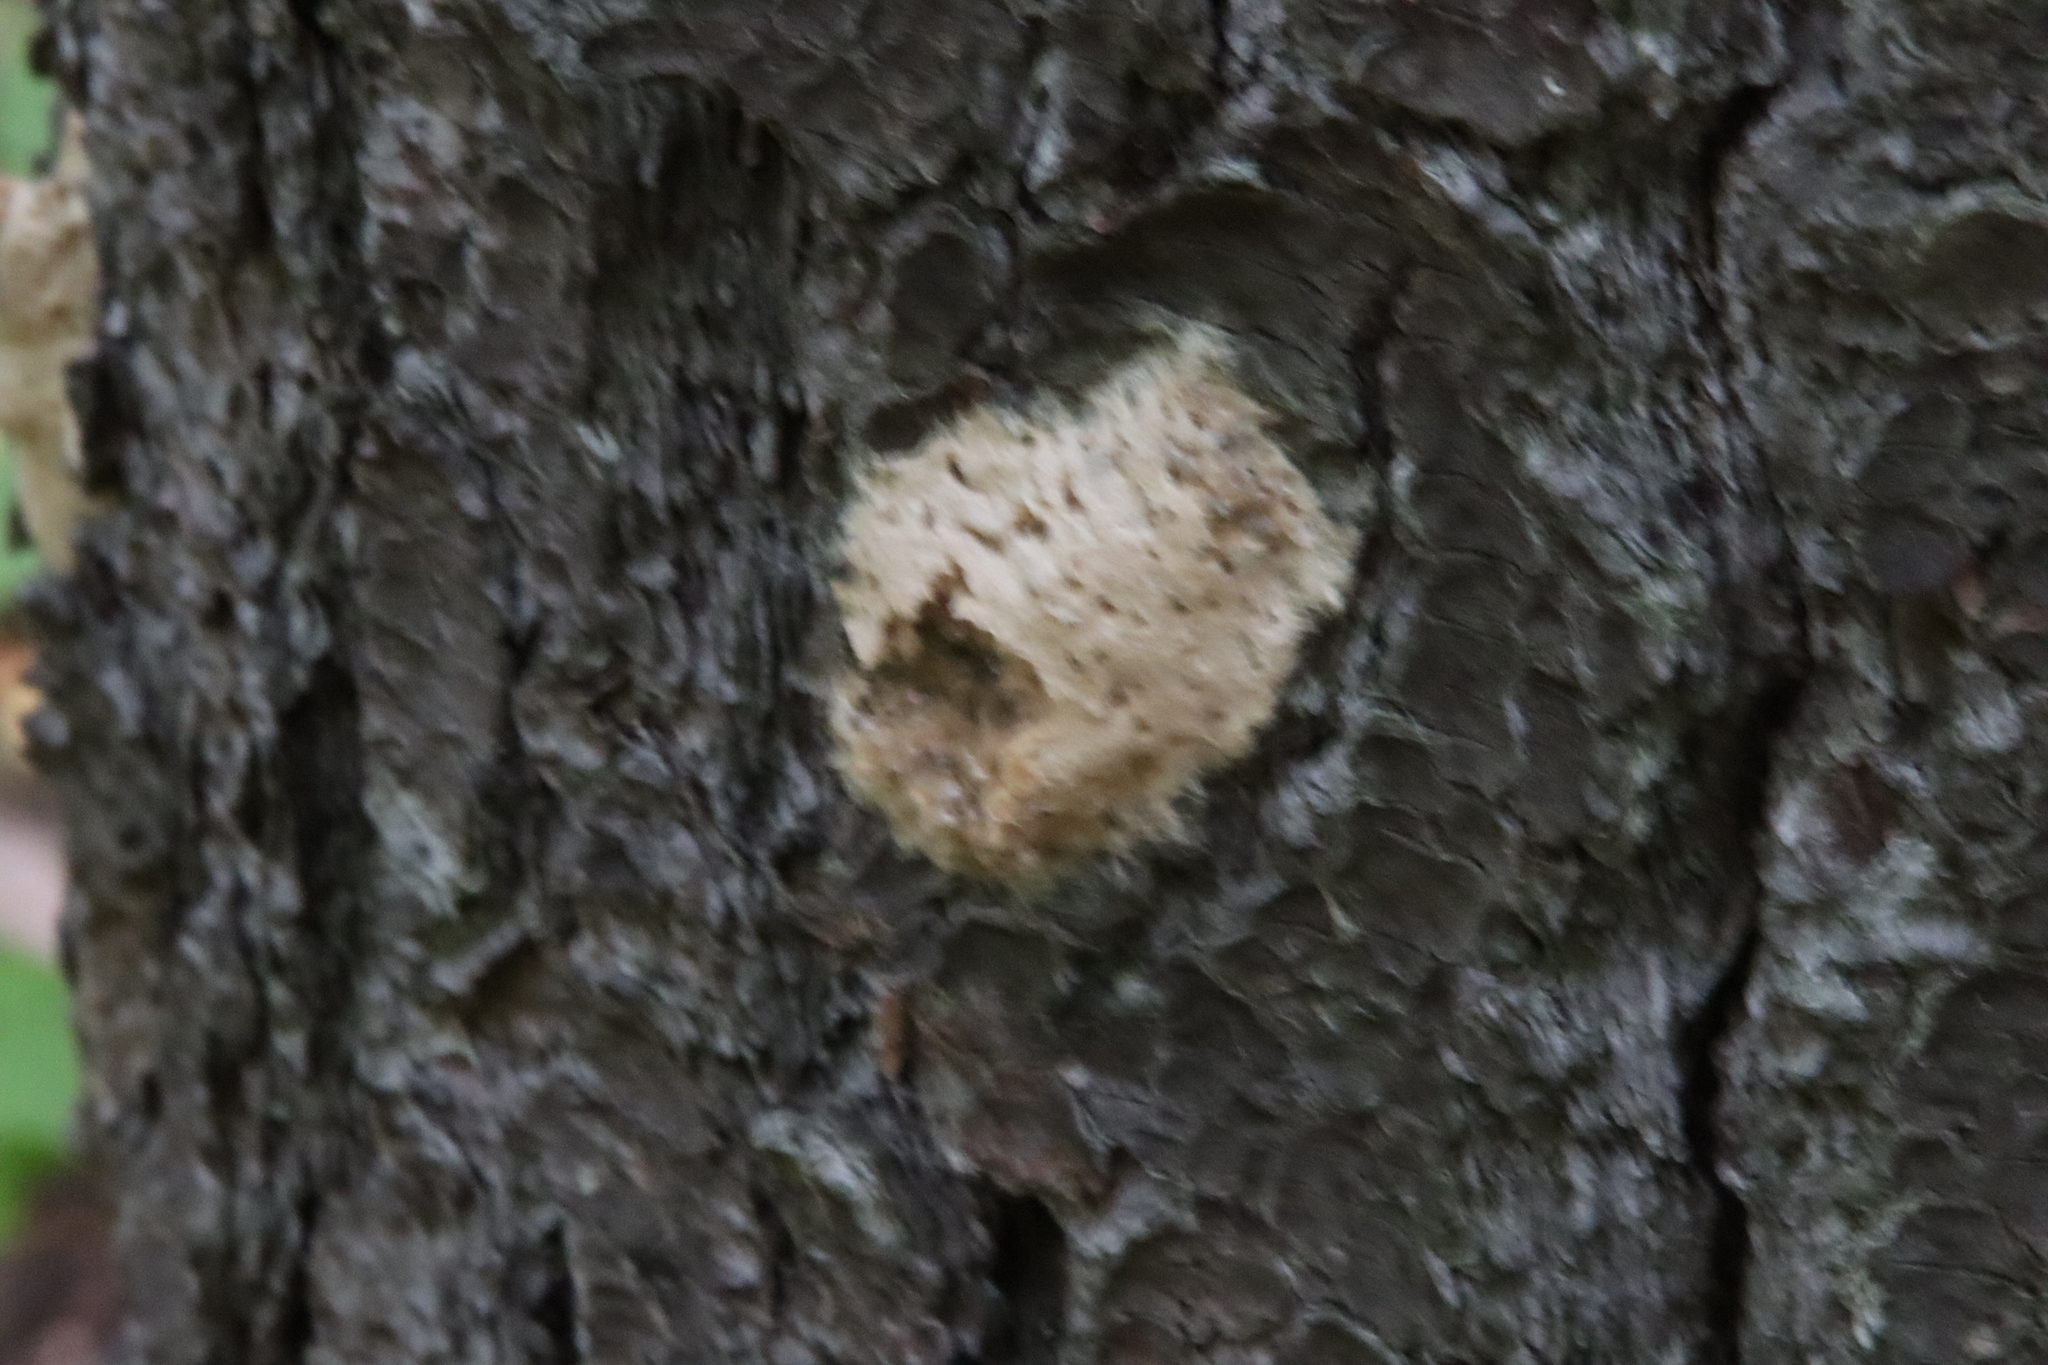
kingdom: Animalia
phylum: Arthropoda
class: Insecta
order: Lepidoptera
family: Erebidae
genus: Lymantria
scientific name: Lymantria dispar
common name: Gypsy moth
